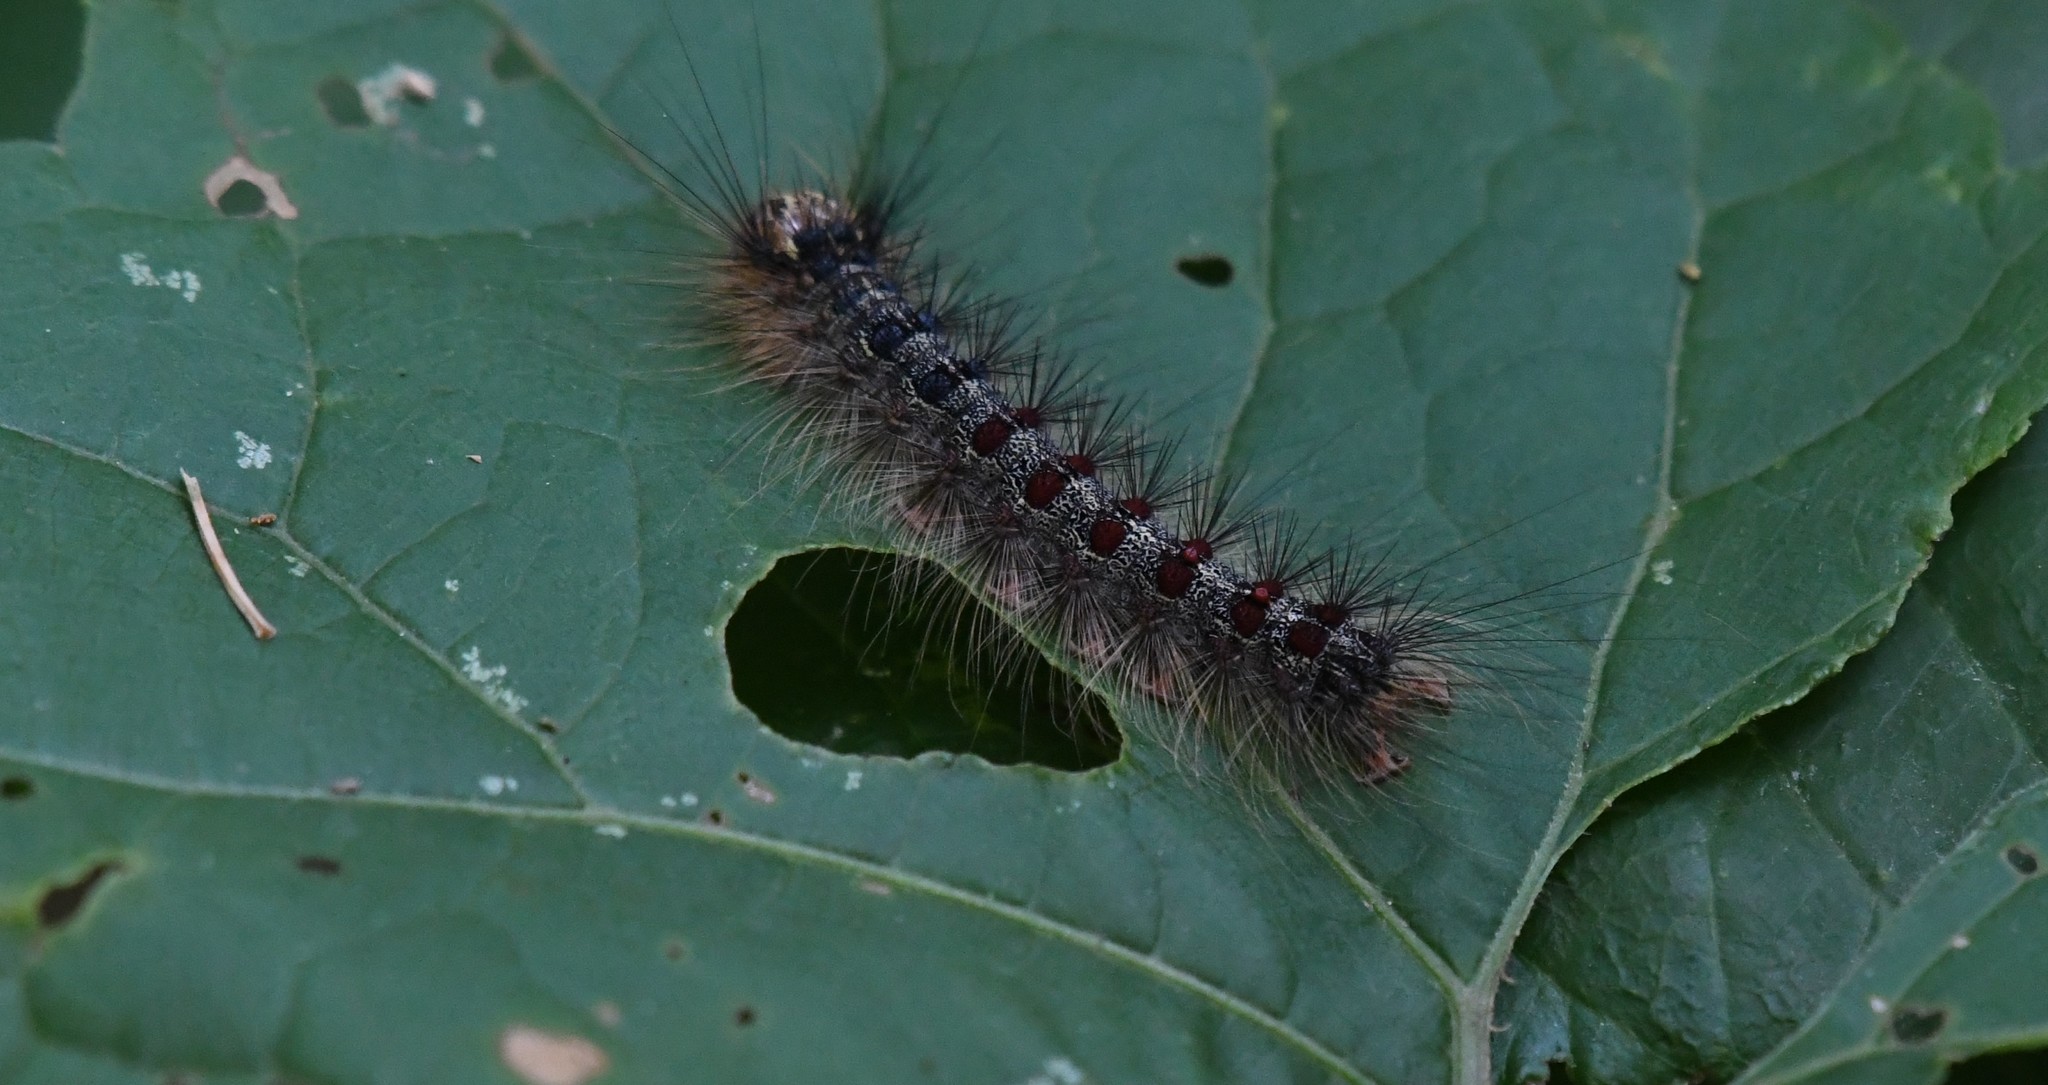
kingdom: Animalia
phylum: Arthropoda
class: Insecta
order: Lepidoptera
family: Erebidae
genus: Lymantria
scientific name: Lymantria dispar
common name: Gypsy moth
